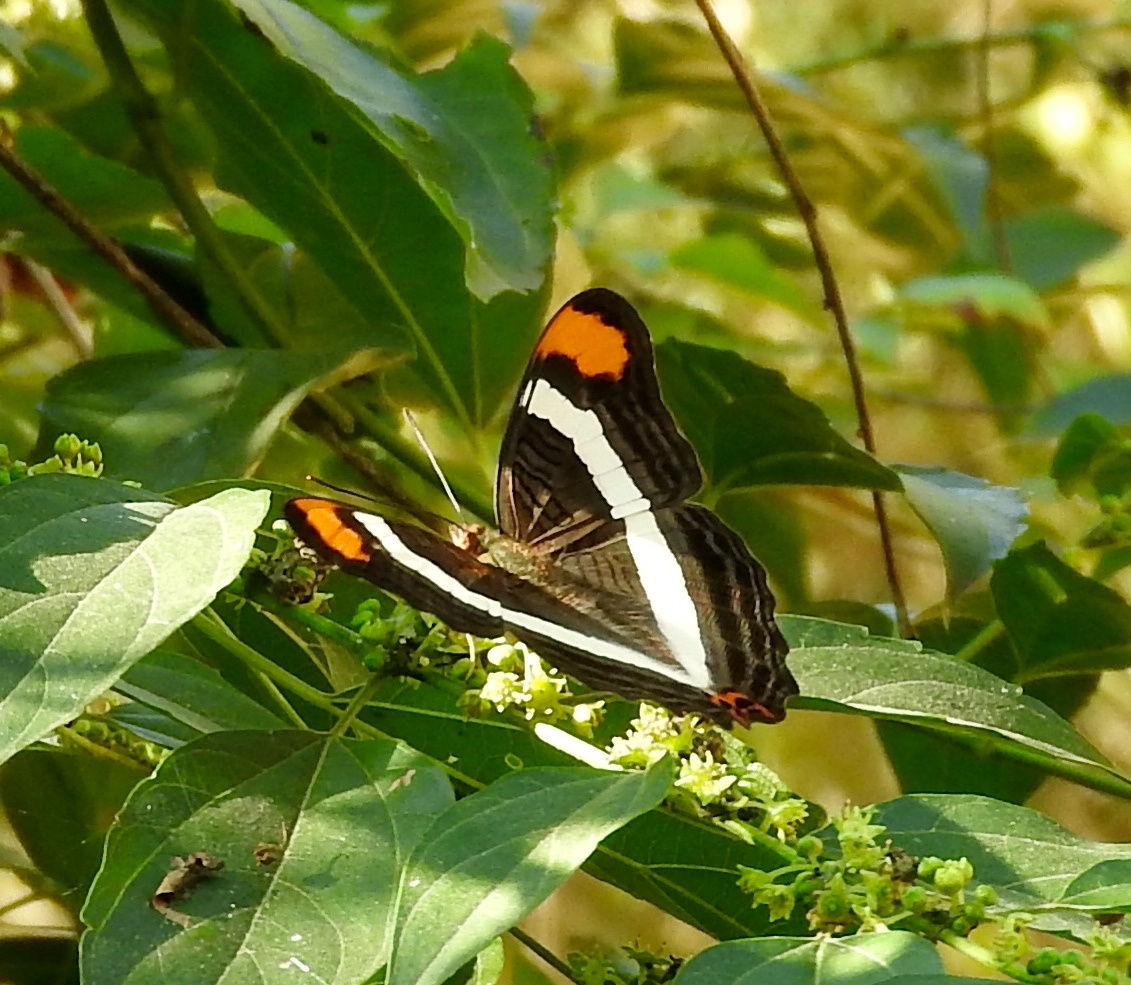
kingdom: Animalia
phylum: Arthropoda
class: Insecta
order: Lepidoptera
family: Nymphalidae
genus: Limenitis
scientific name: Limenitis
